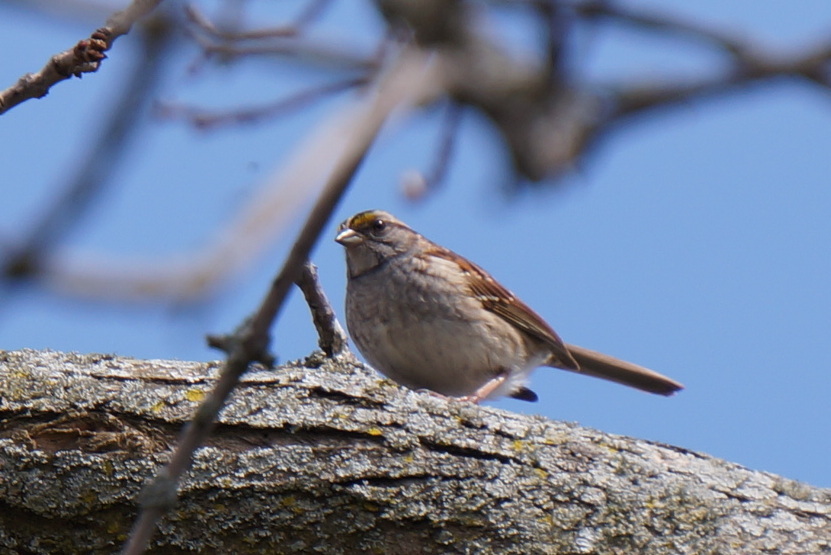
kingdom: Animalia
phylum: Chordata
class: Aves
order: Passeriformes
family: Passerellidae
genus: Zonotrichia
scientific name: Zonotrichia albicollis
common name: White-throated sparrow
